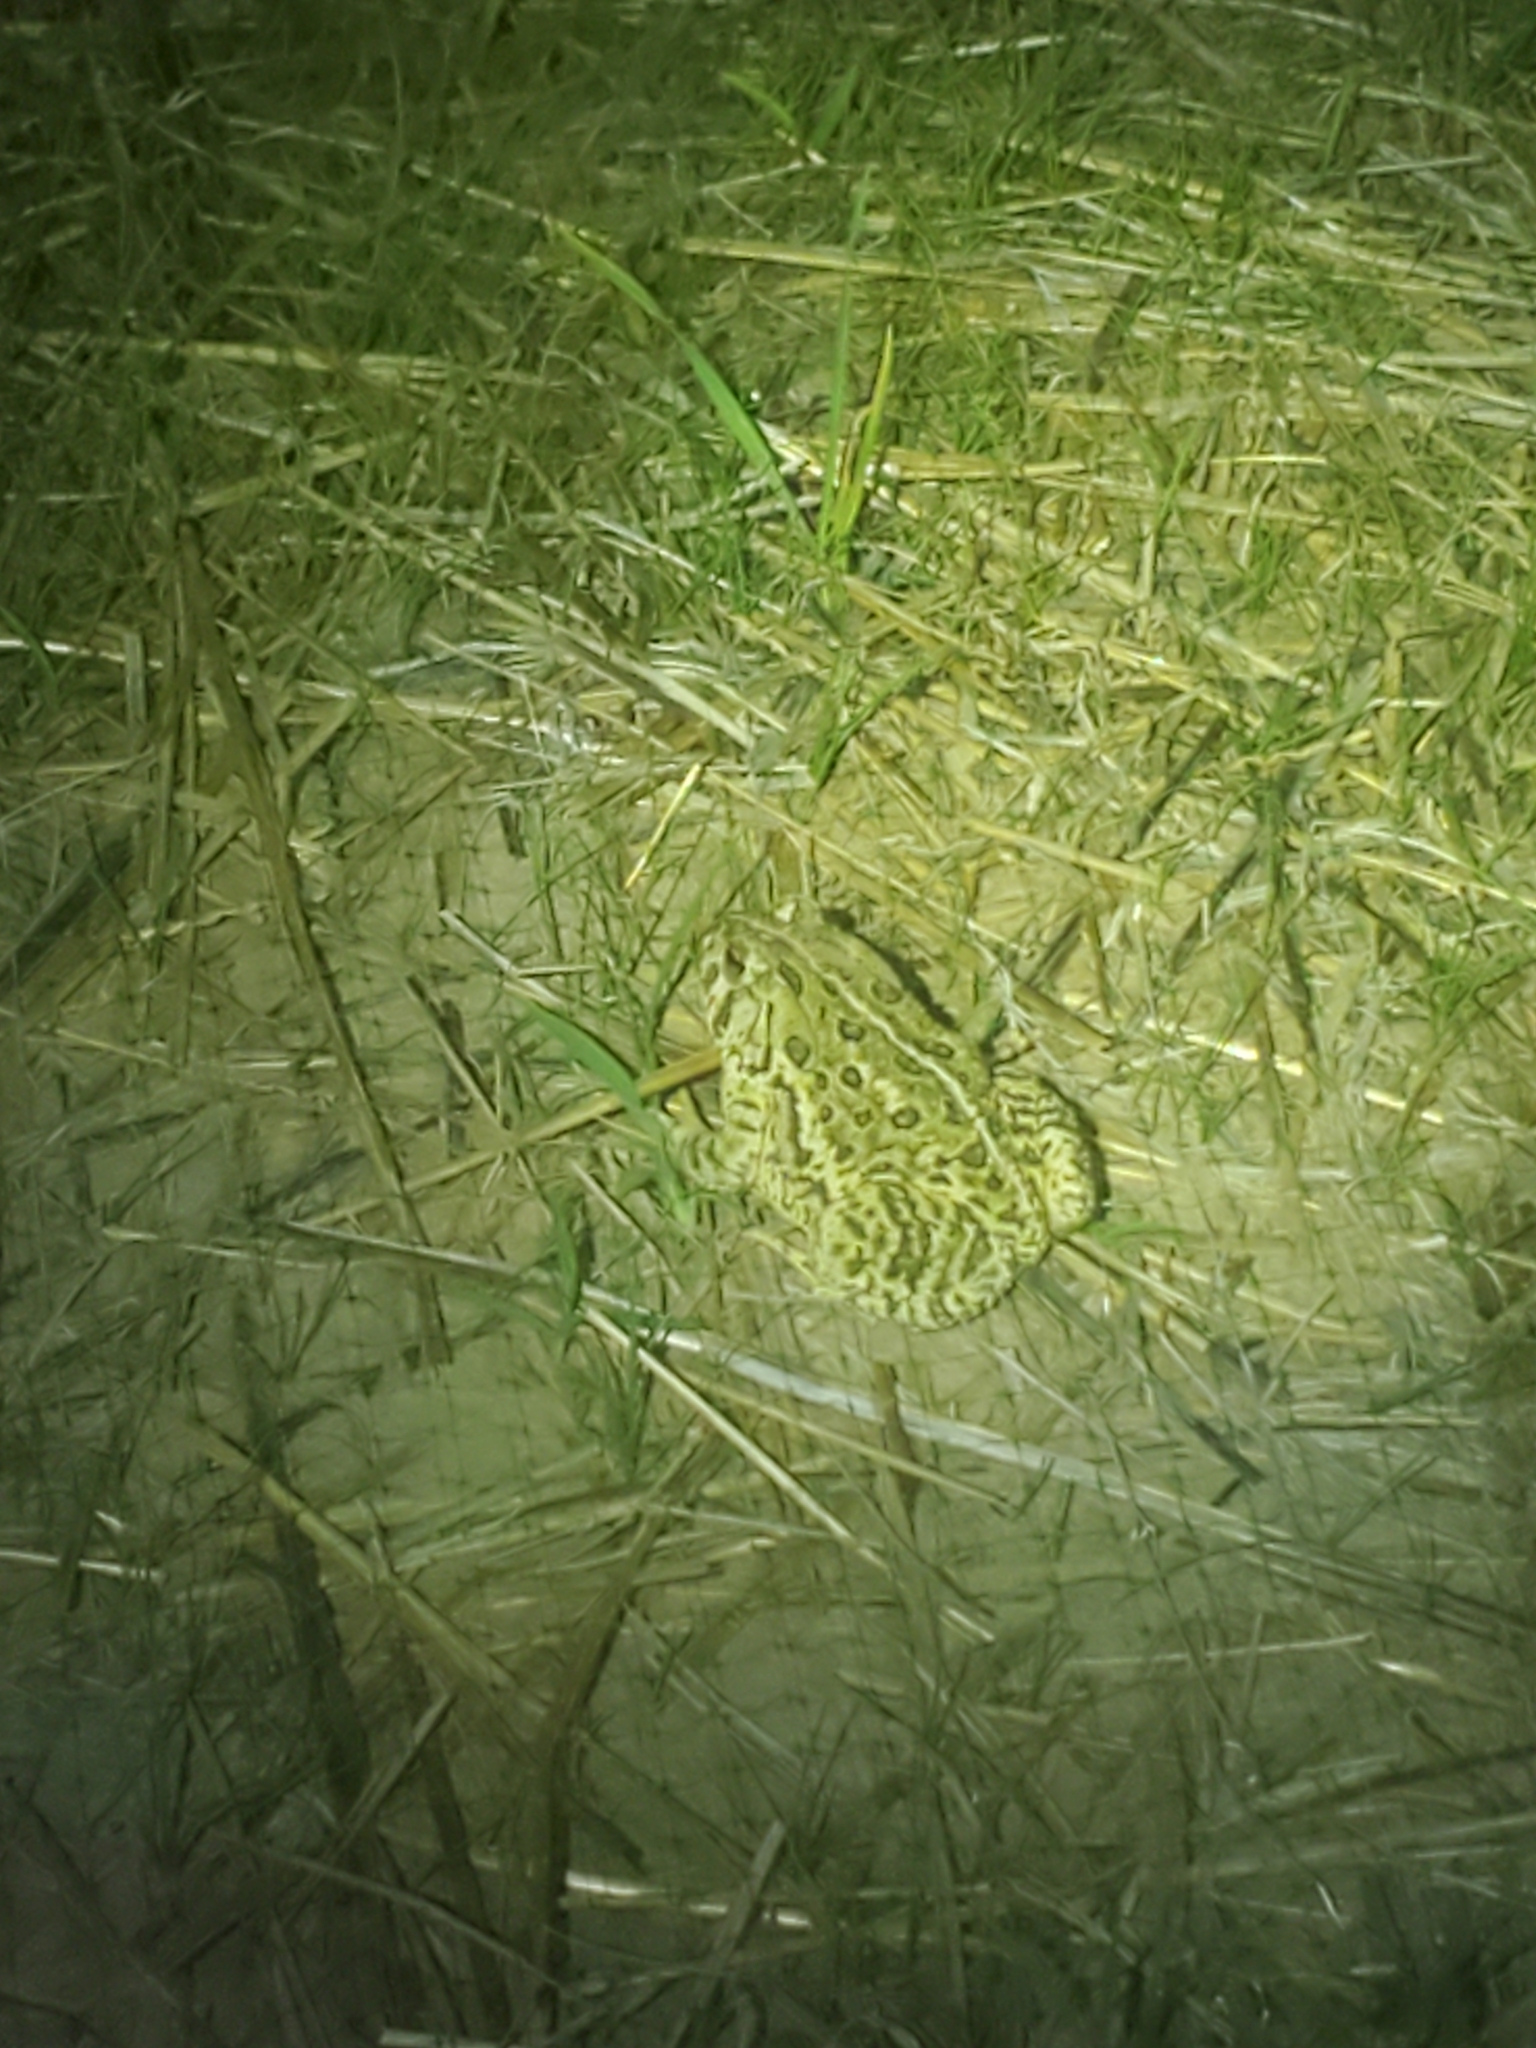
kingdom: Animalia
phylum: Chordata
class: Amphibia
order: Anura
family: Bufonidae
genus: Anaxyrus
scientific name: Anaxyrus woodhousii
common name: Woodhouse's toad
